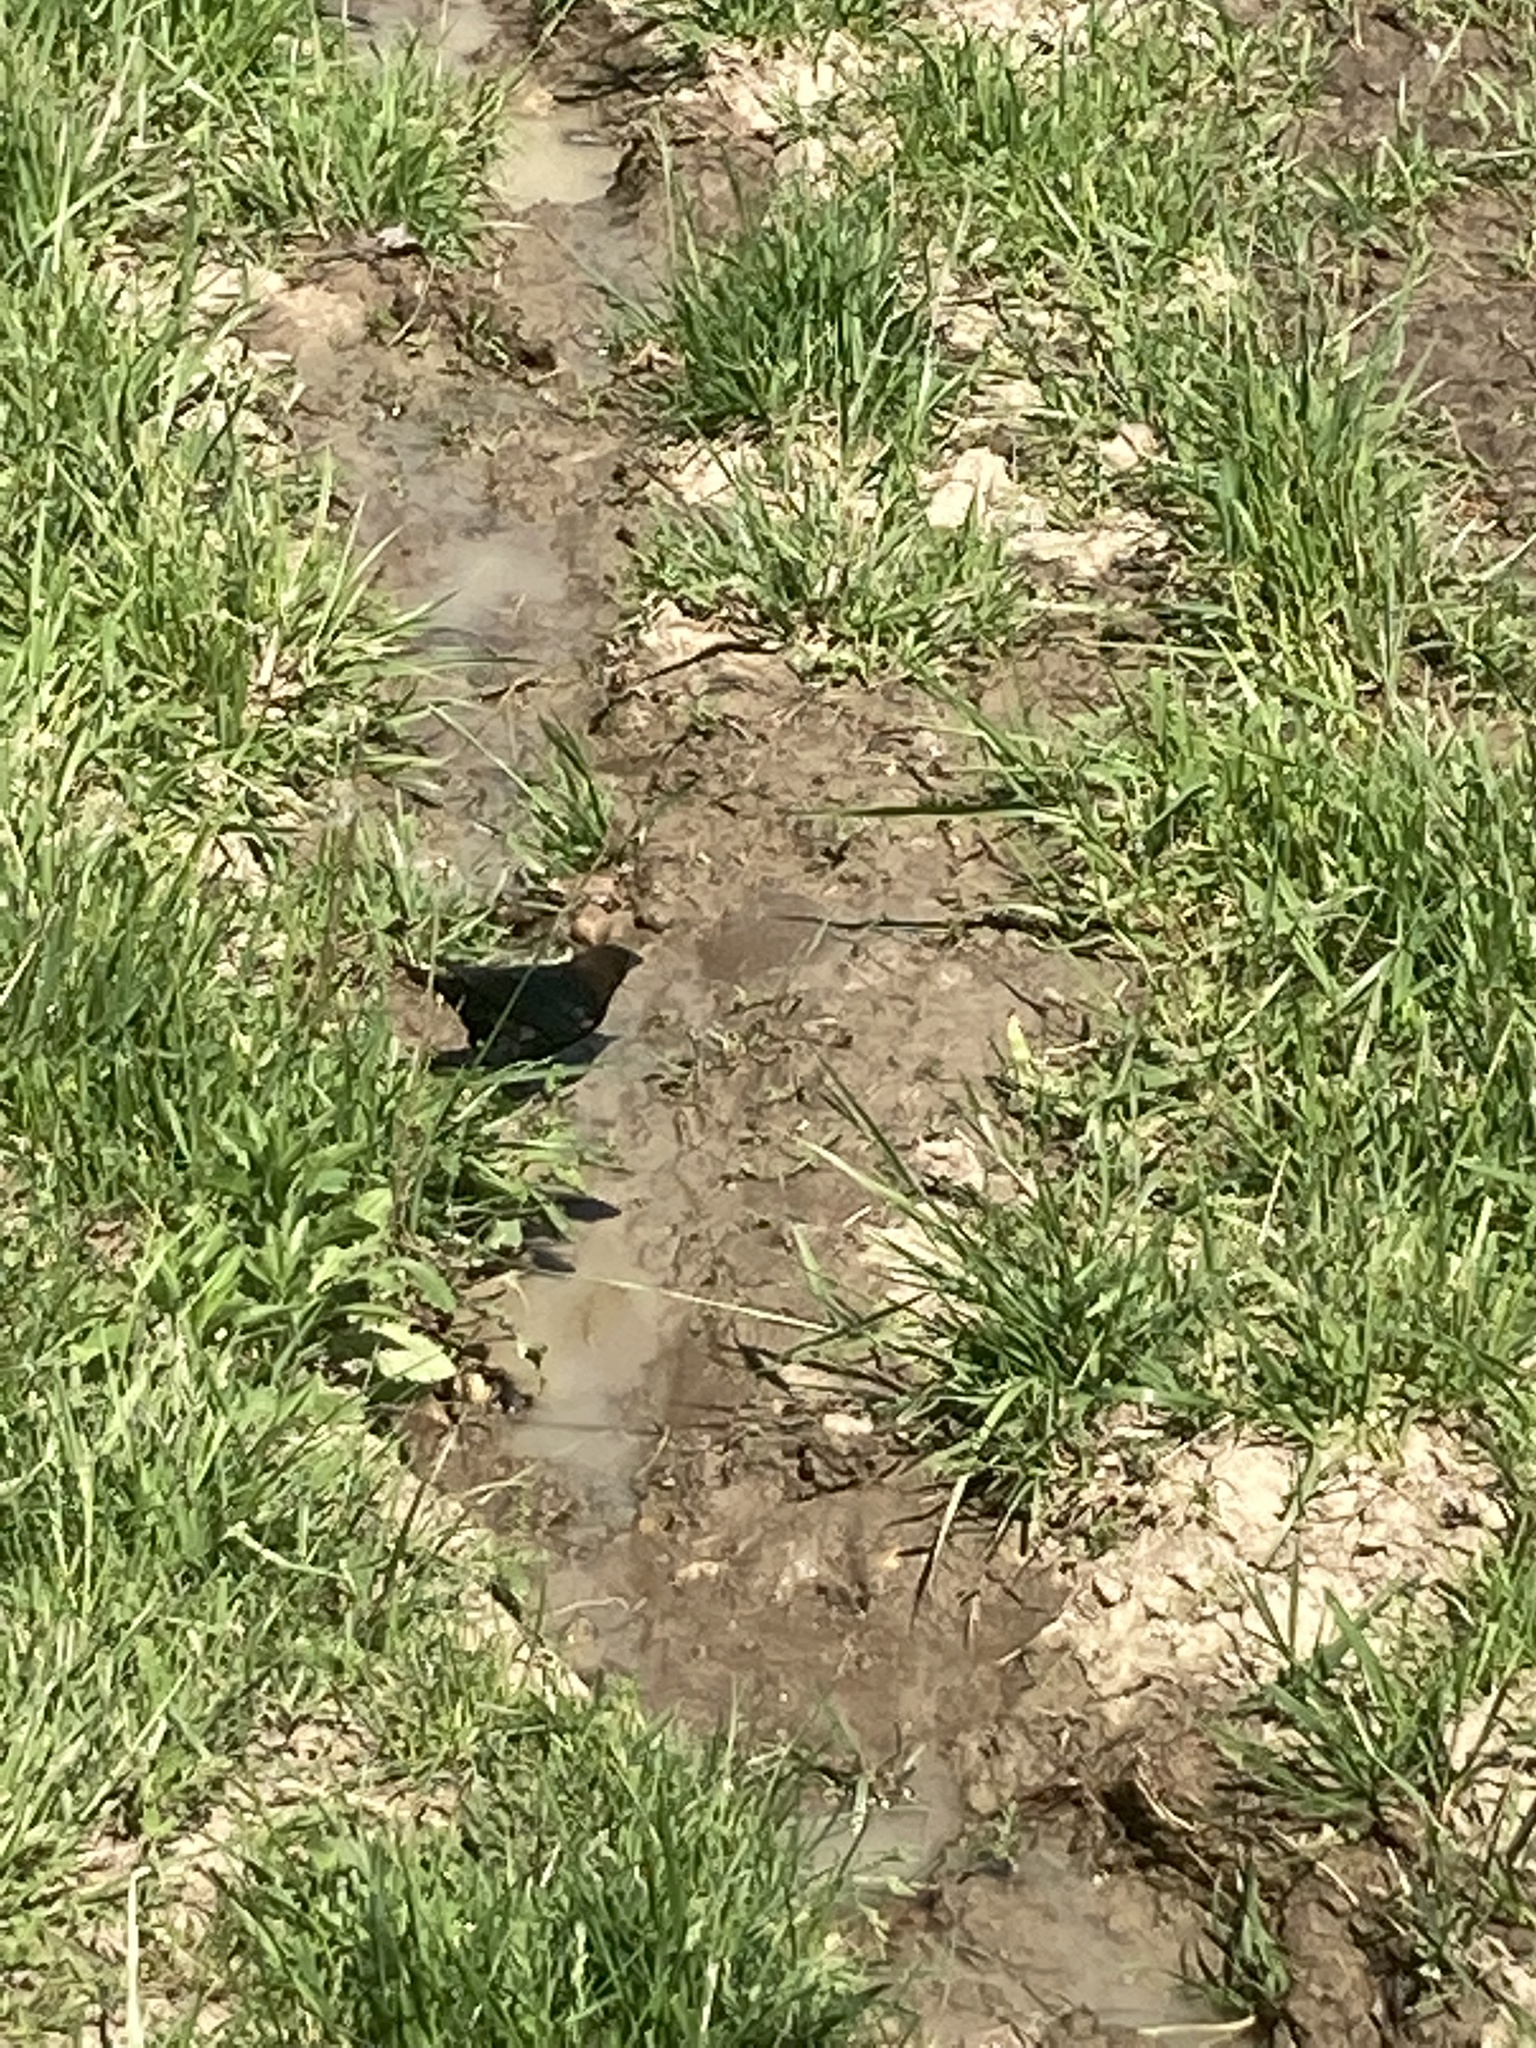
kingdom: Animalia
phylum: Chordata
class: Aves
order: Passeriformes
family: Icteridae
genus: Molothrus
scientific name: Molothrus ater
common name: Brown-headed cowbird
